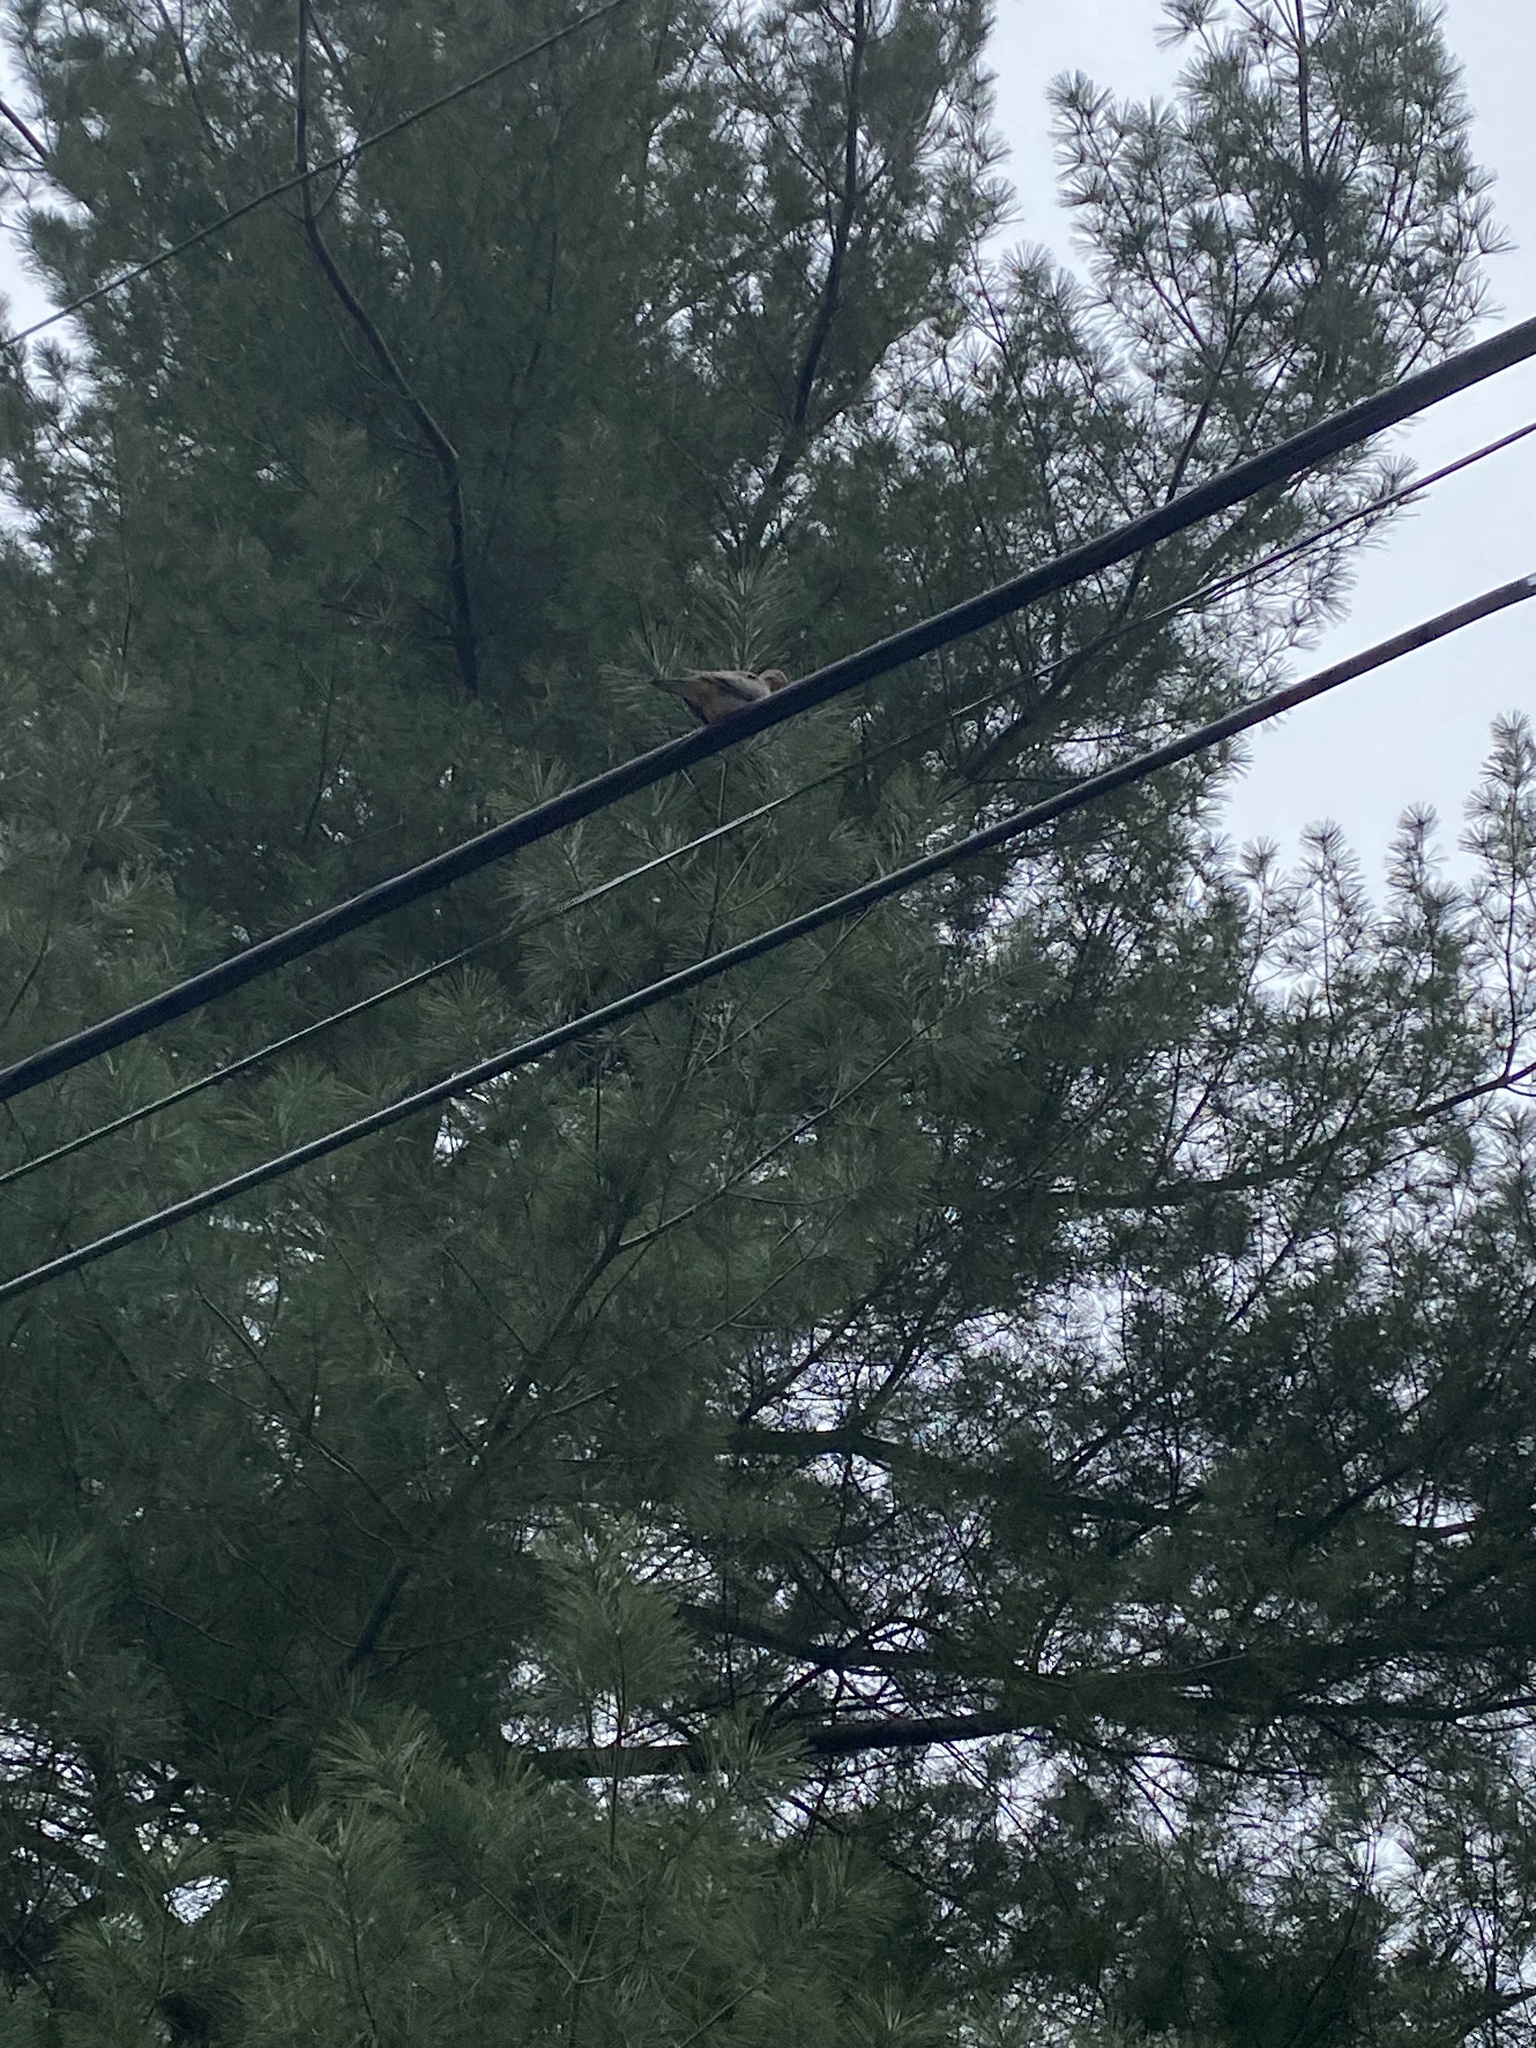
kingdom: Animalia
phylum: Chordata
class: Aves
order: Columbiformes
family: Columbidae
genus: Zenaida
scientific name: Zenaida macroura
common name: Mourning dove
